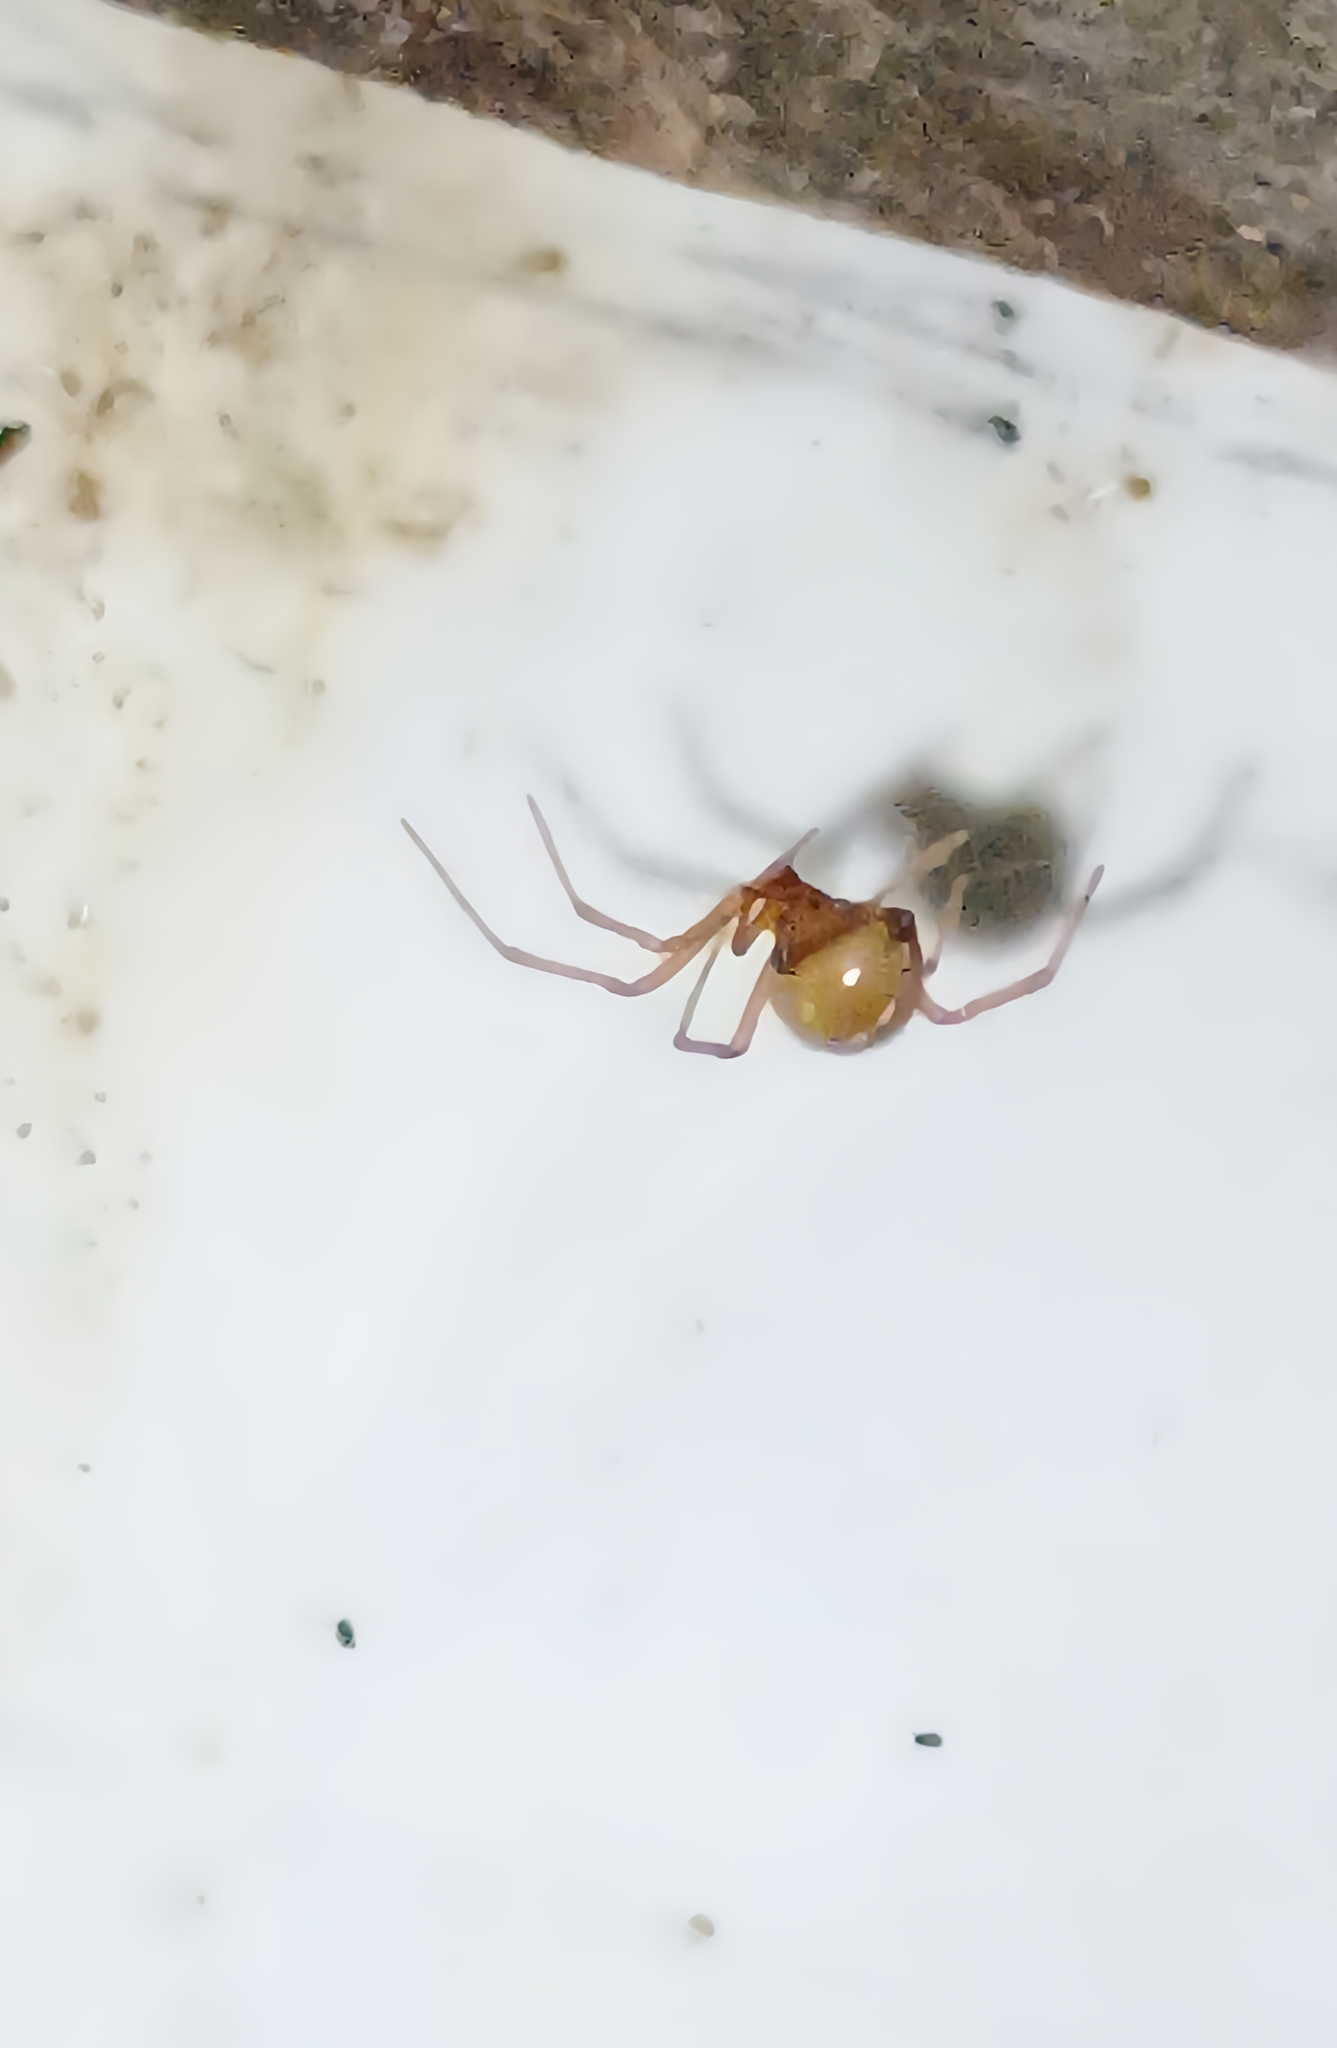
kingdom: Animalia
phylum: Arthropoda
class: Arachnida
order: Araneae
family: Theridiidae
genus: Nesticodes
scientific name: Nesticodes rufipes
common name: Cobweb spiders
